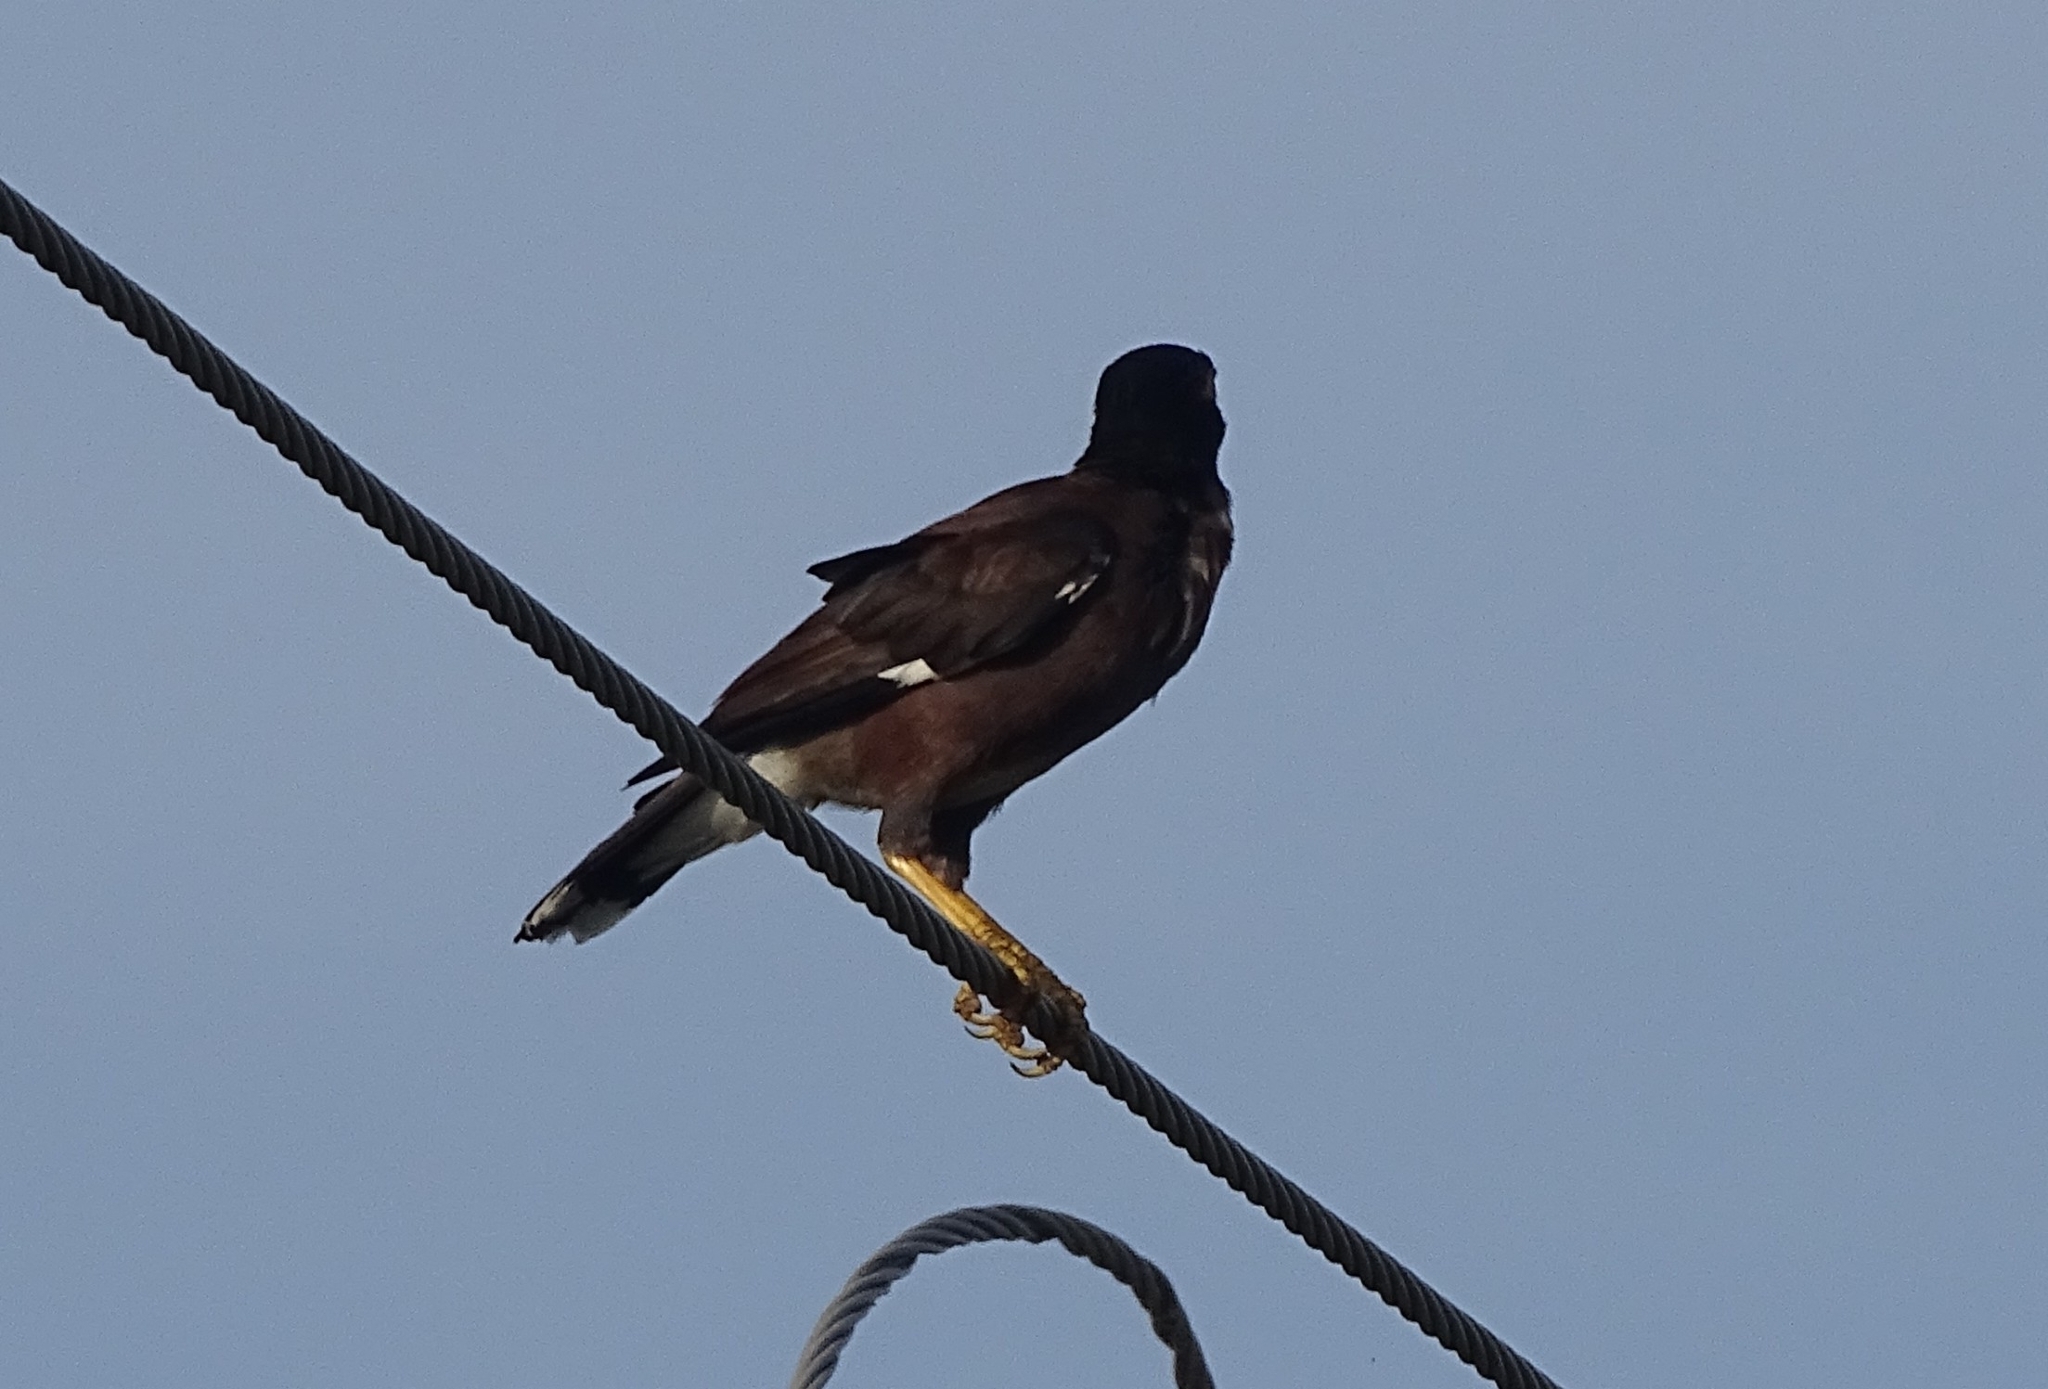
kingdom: Animalia
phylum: Chordata
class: Aves
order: Passeriformes
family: Sturnidae
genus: Acridotheres
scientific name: Acridotheres tristis
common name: Common myna
